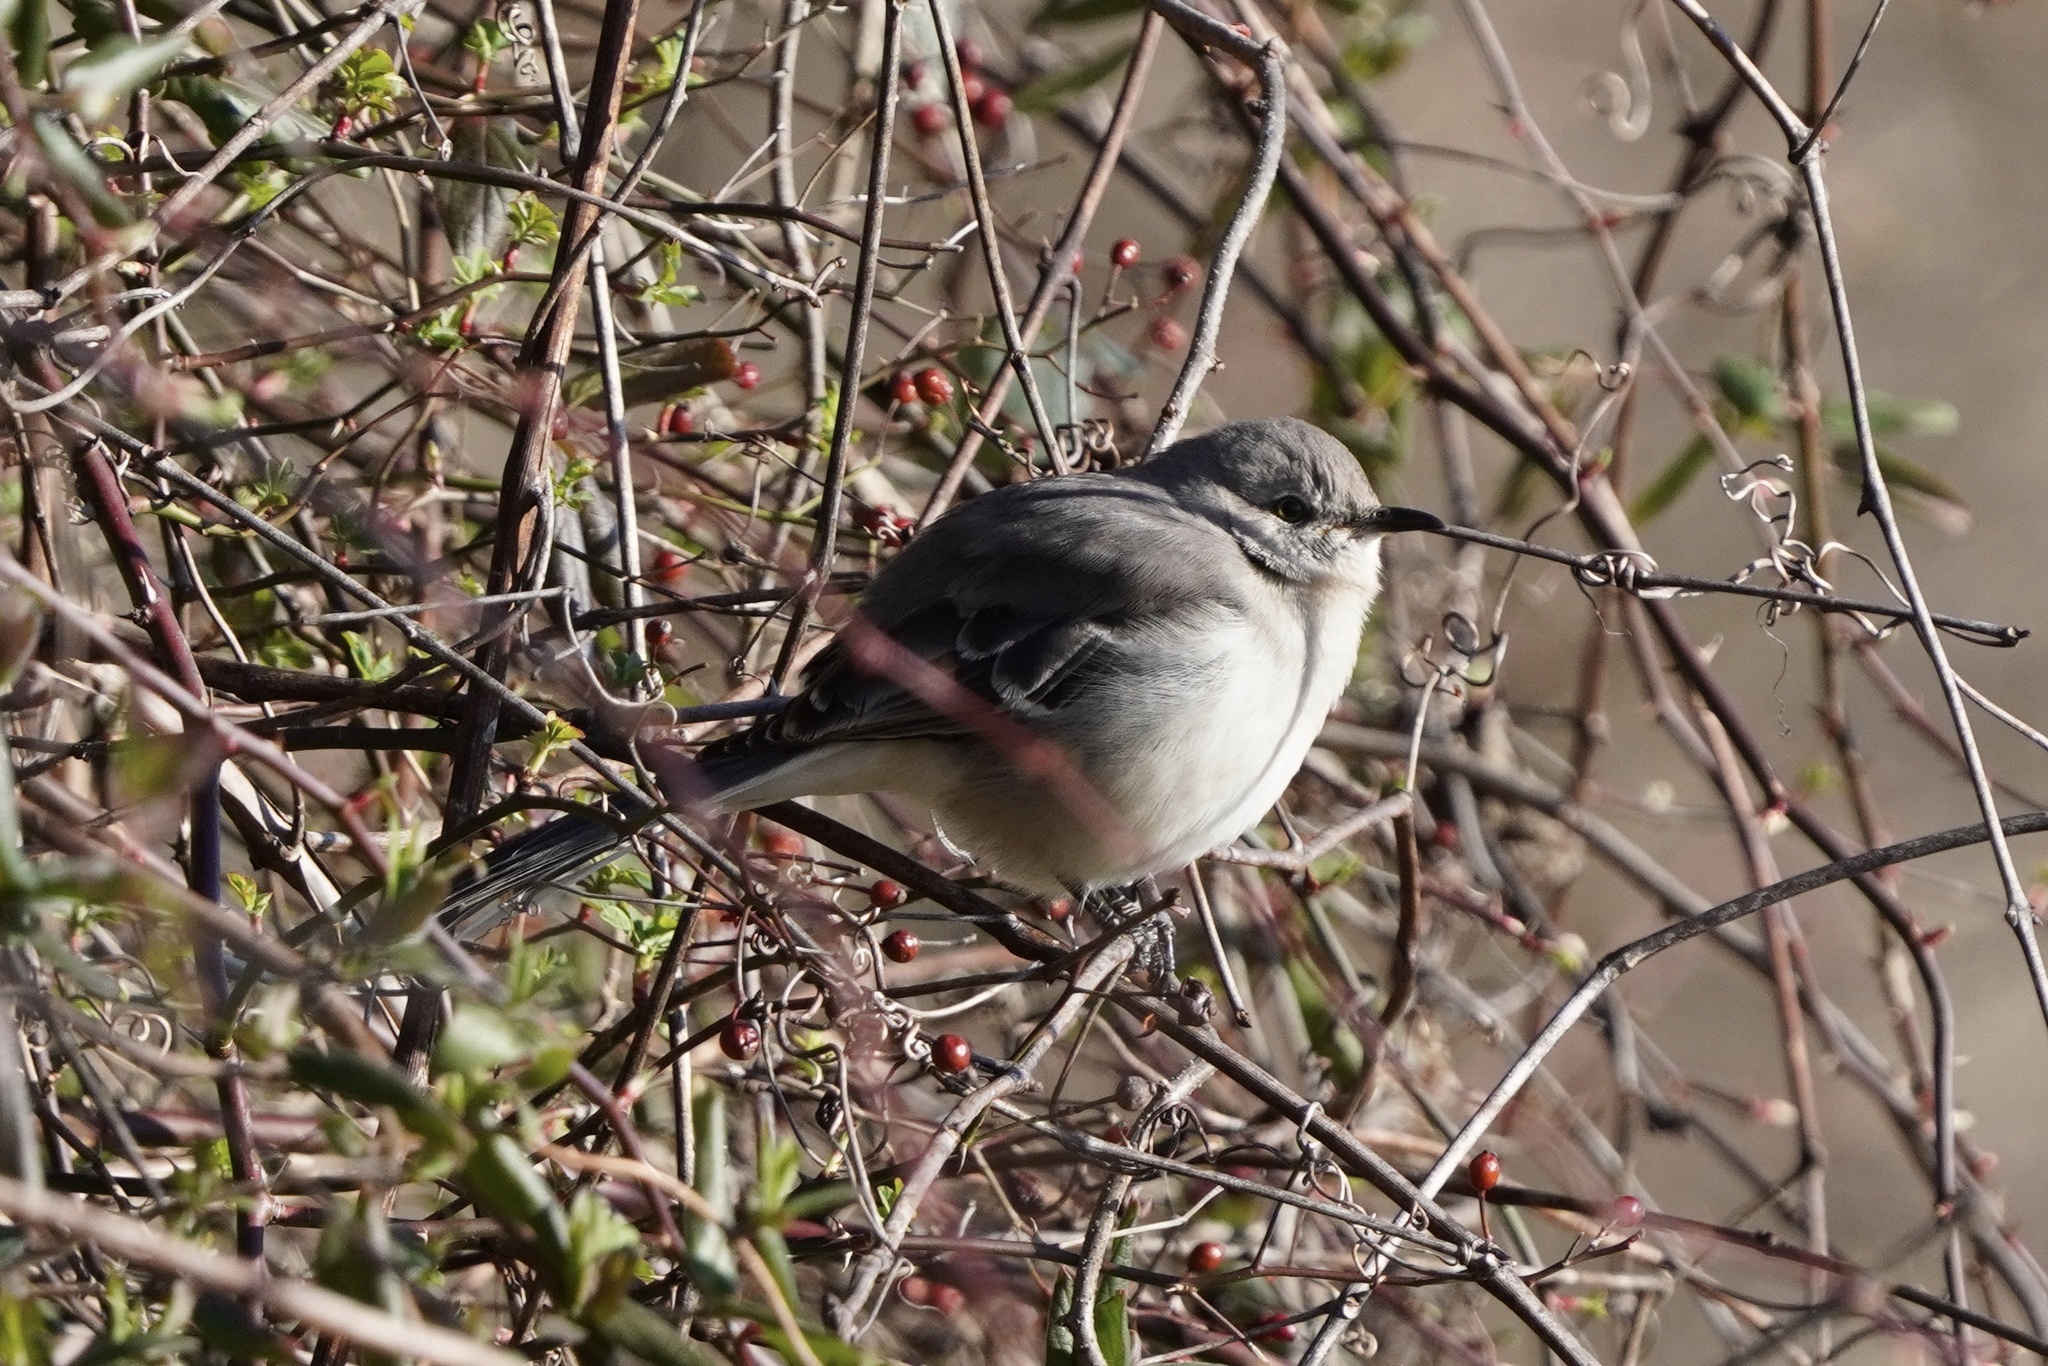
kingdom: Animalia
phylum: Chordata
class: Aves
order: Passeriformes
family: Mimidae
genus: Mimus
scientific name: Mimus polyglottos
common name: Northern mockingbird
